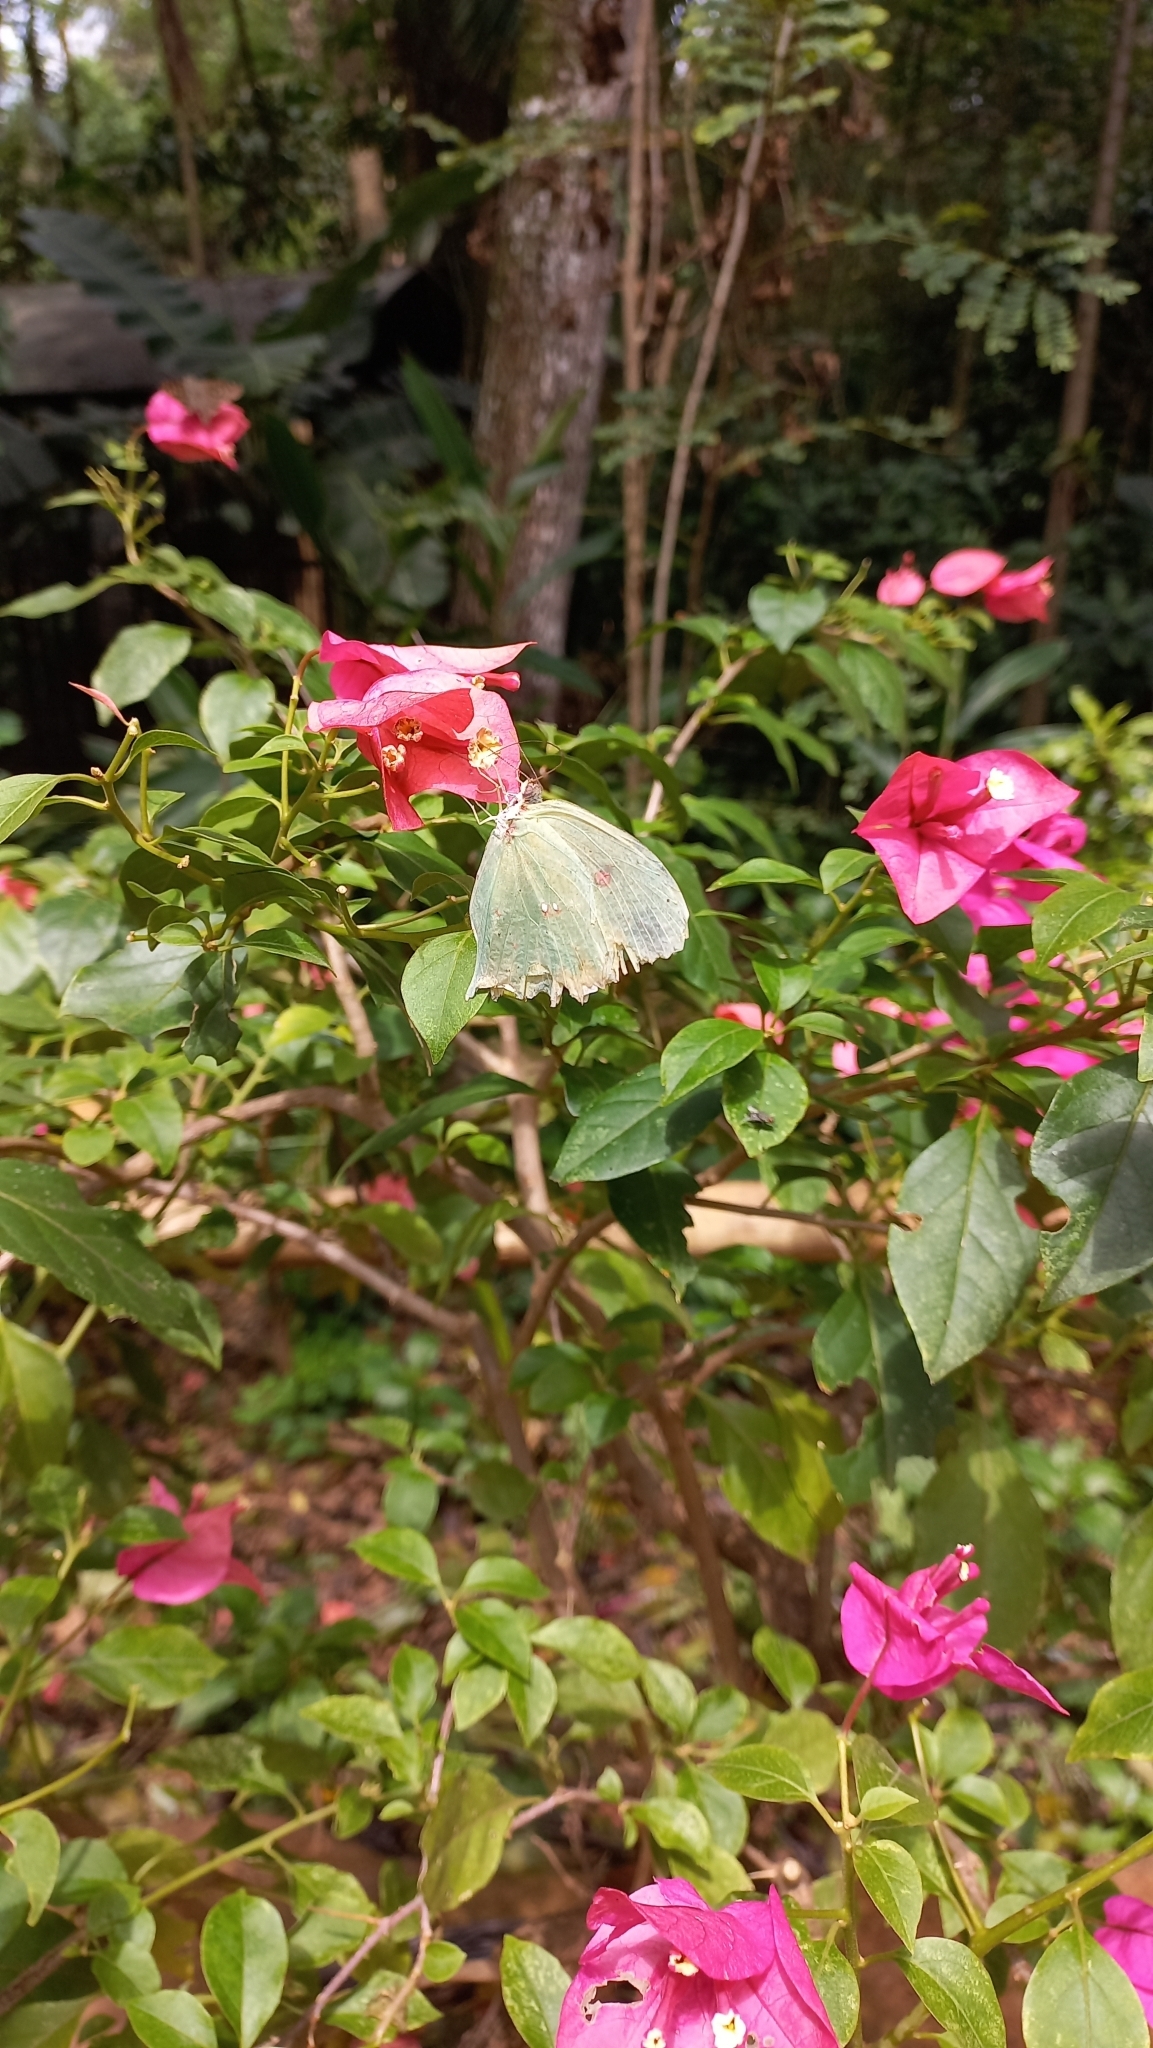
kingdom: Animalia
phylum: Arthropoda
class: Insecta
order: Lepidoptera
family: Pieridae
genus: Phoebis
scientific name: Phoebis neocypris
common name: Tailed sulphur
